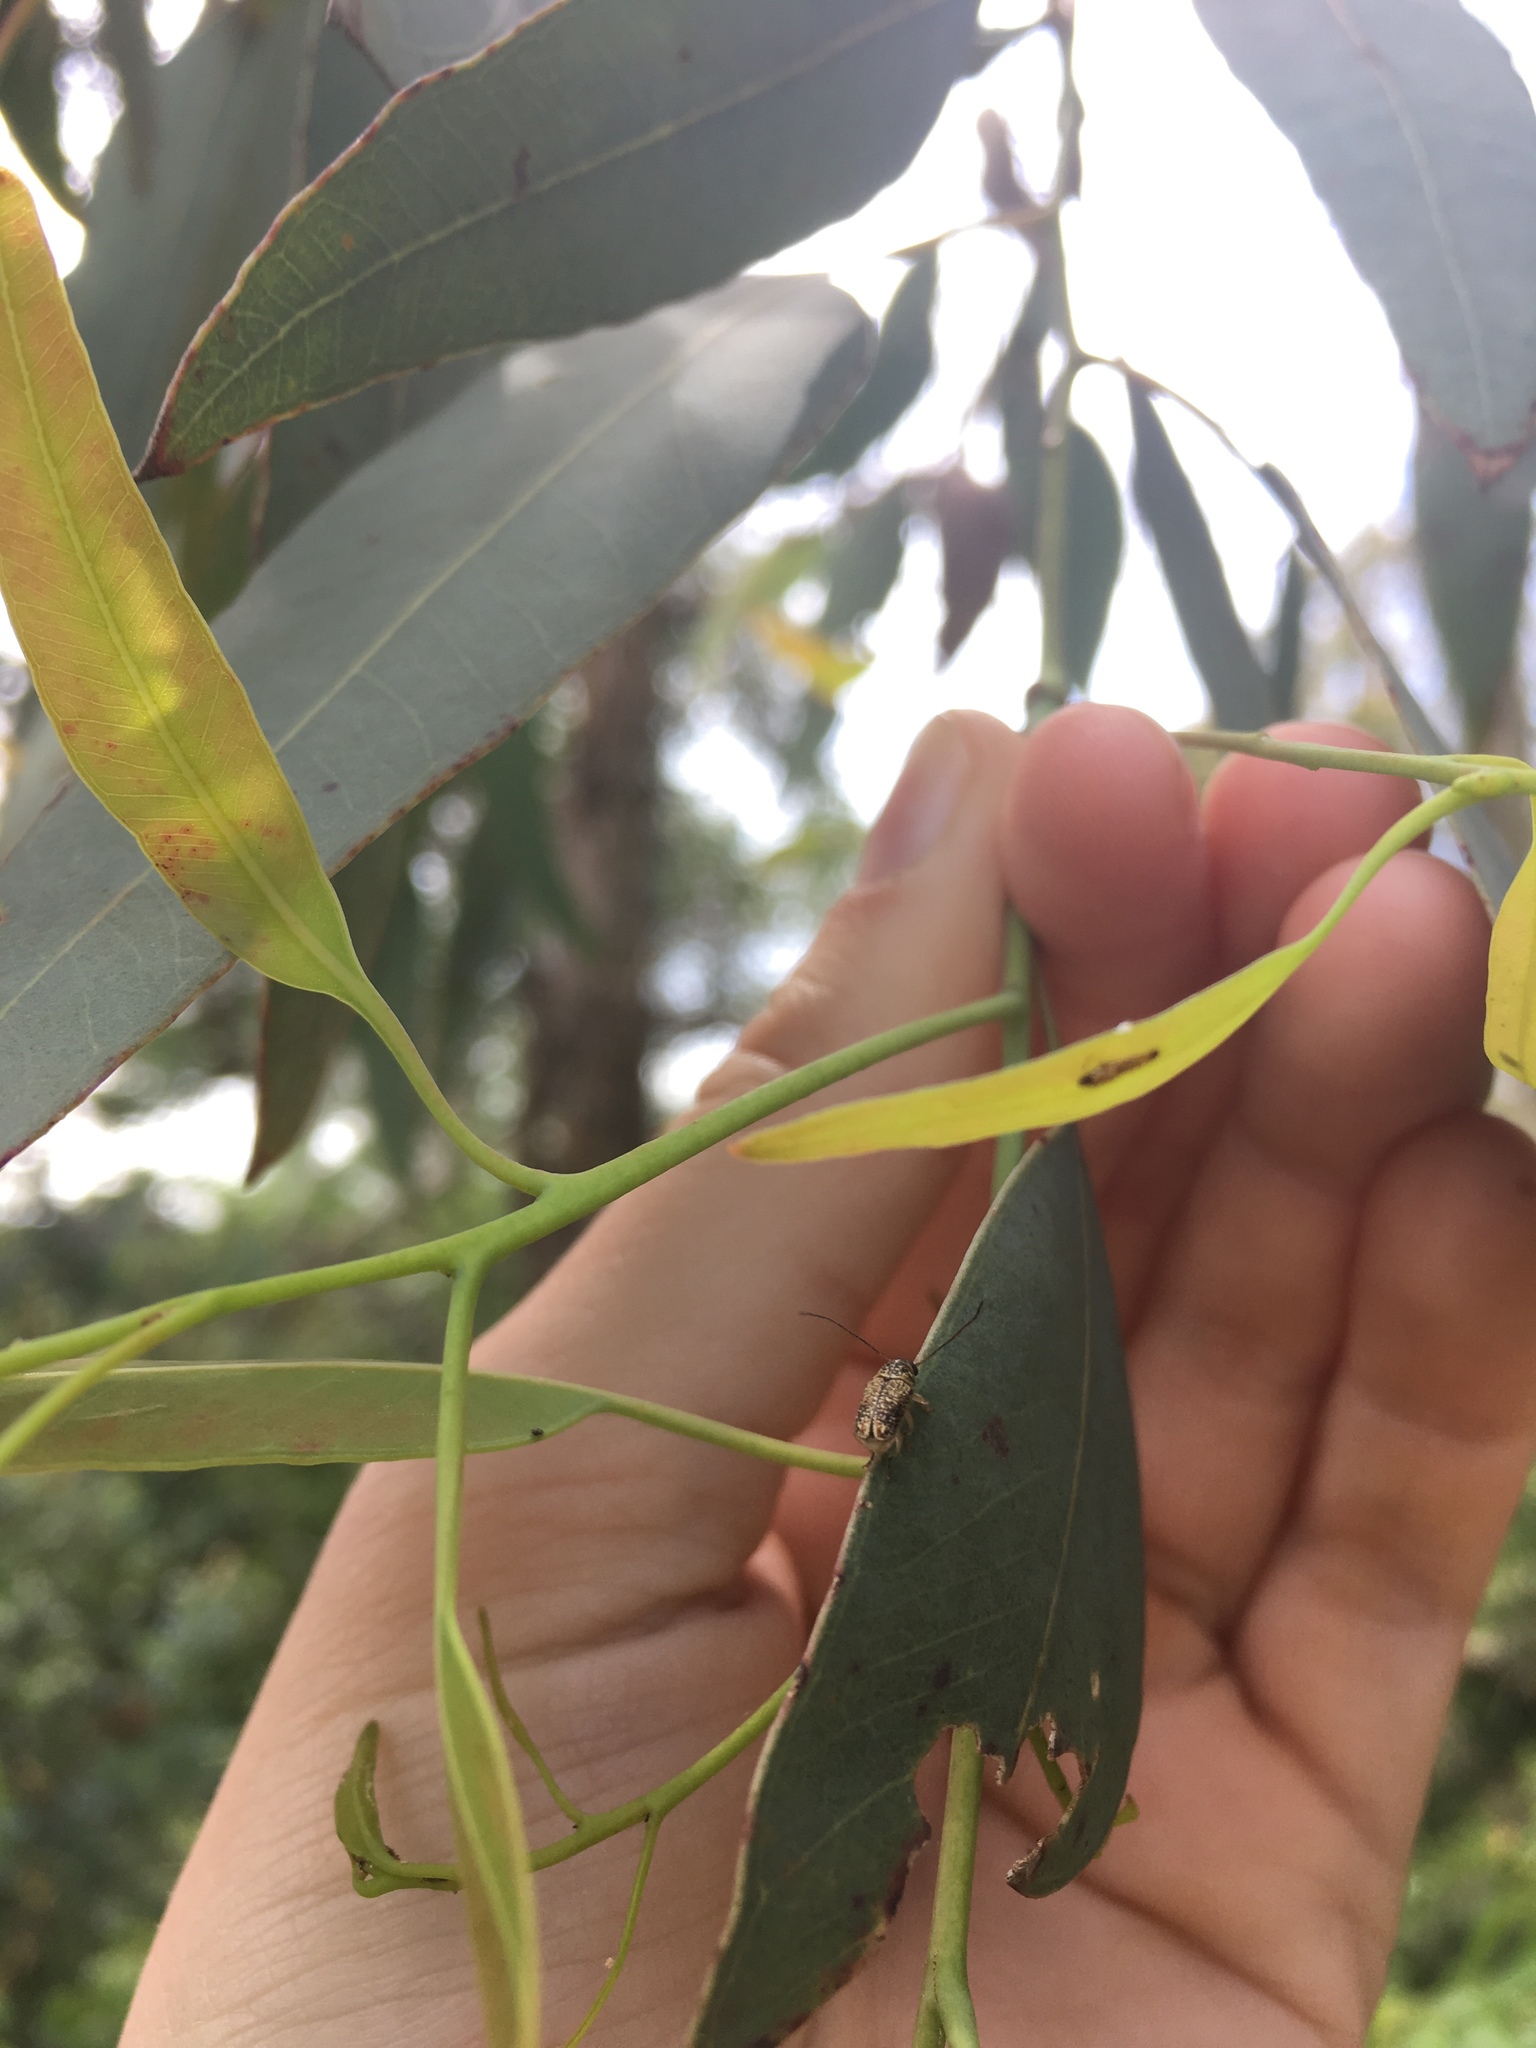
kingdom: Animalia
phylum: Arthropoda
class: Insecta
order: Coleoptera
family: Chrysomelidae
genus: Aporocera
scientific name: Aporocera
